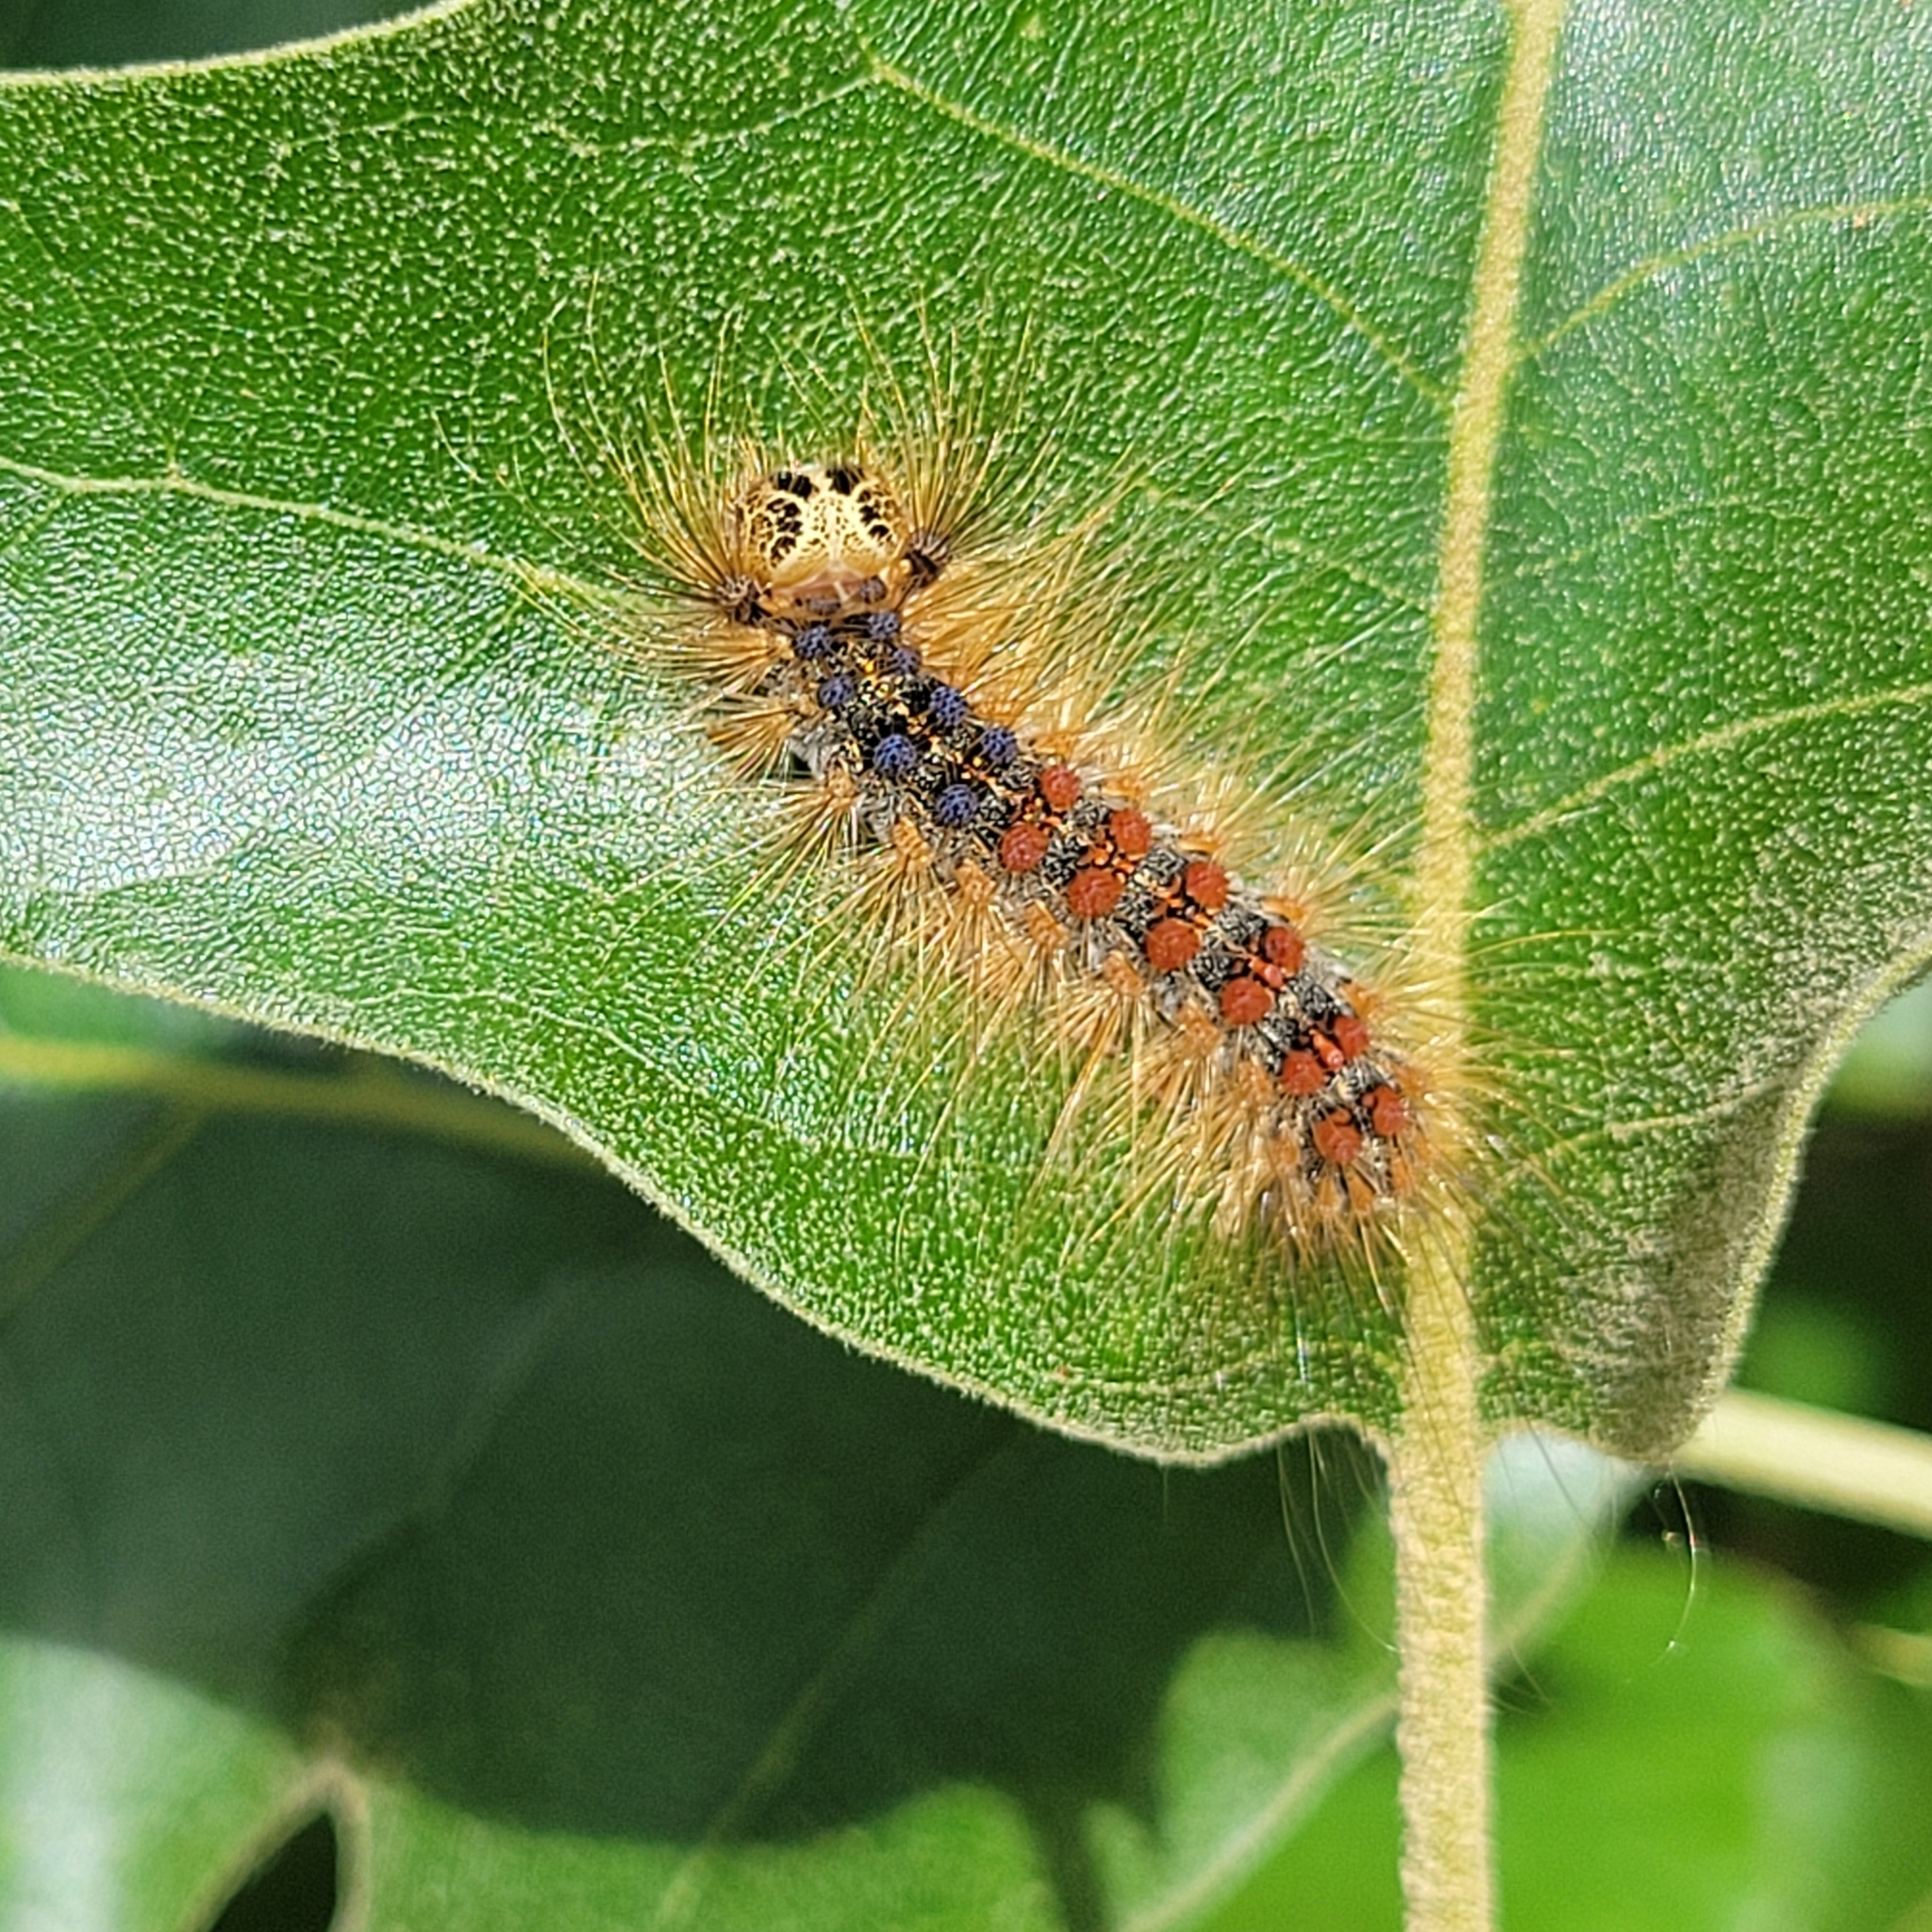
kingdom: Animalia
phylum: Arthropoda
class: Insecta
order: Lepidoptera
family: Erebidae
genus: Lymantria
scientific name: Lymantria dispar
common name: Gypsy moth
